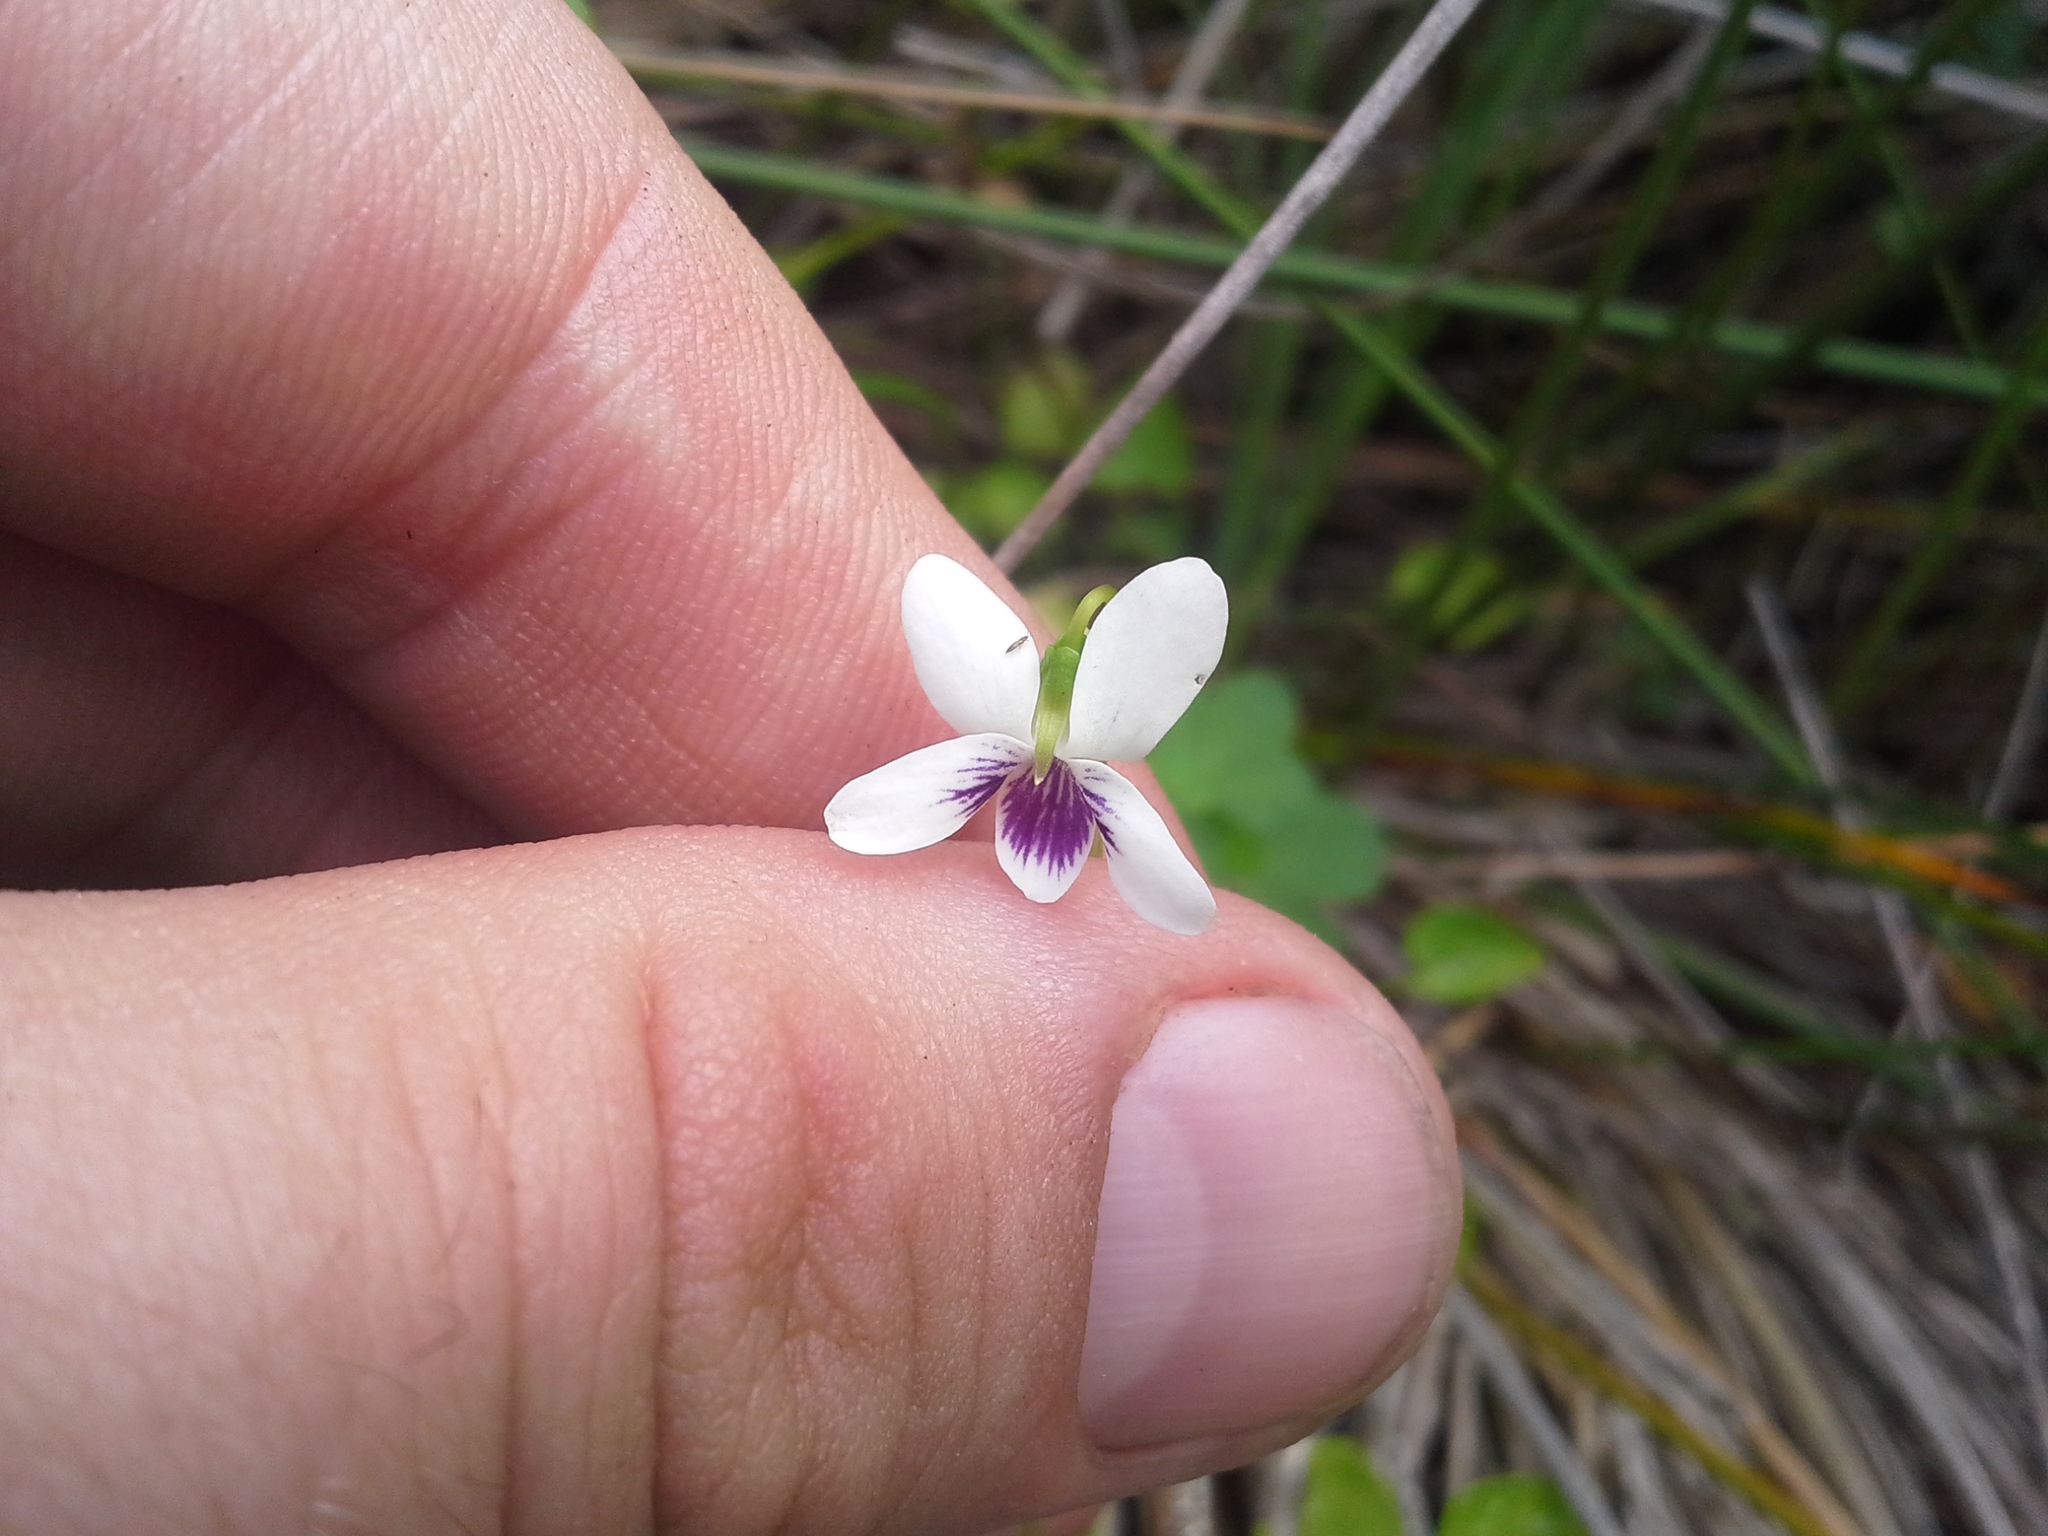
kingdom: Plantae
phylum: Tracheophyta
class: Magnoliopsida
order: Malpighiales
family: Violaceae
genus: Viola
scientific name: Viola lyallii
